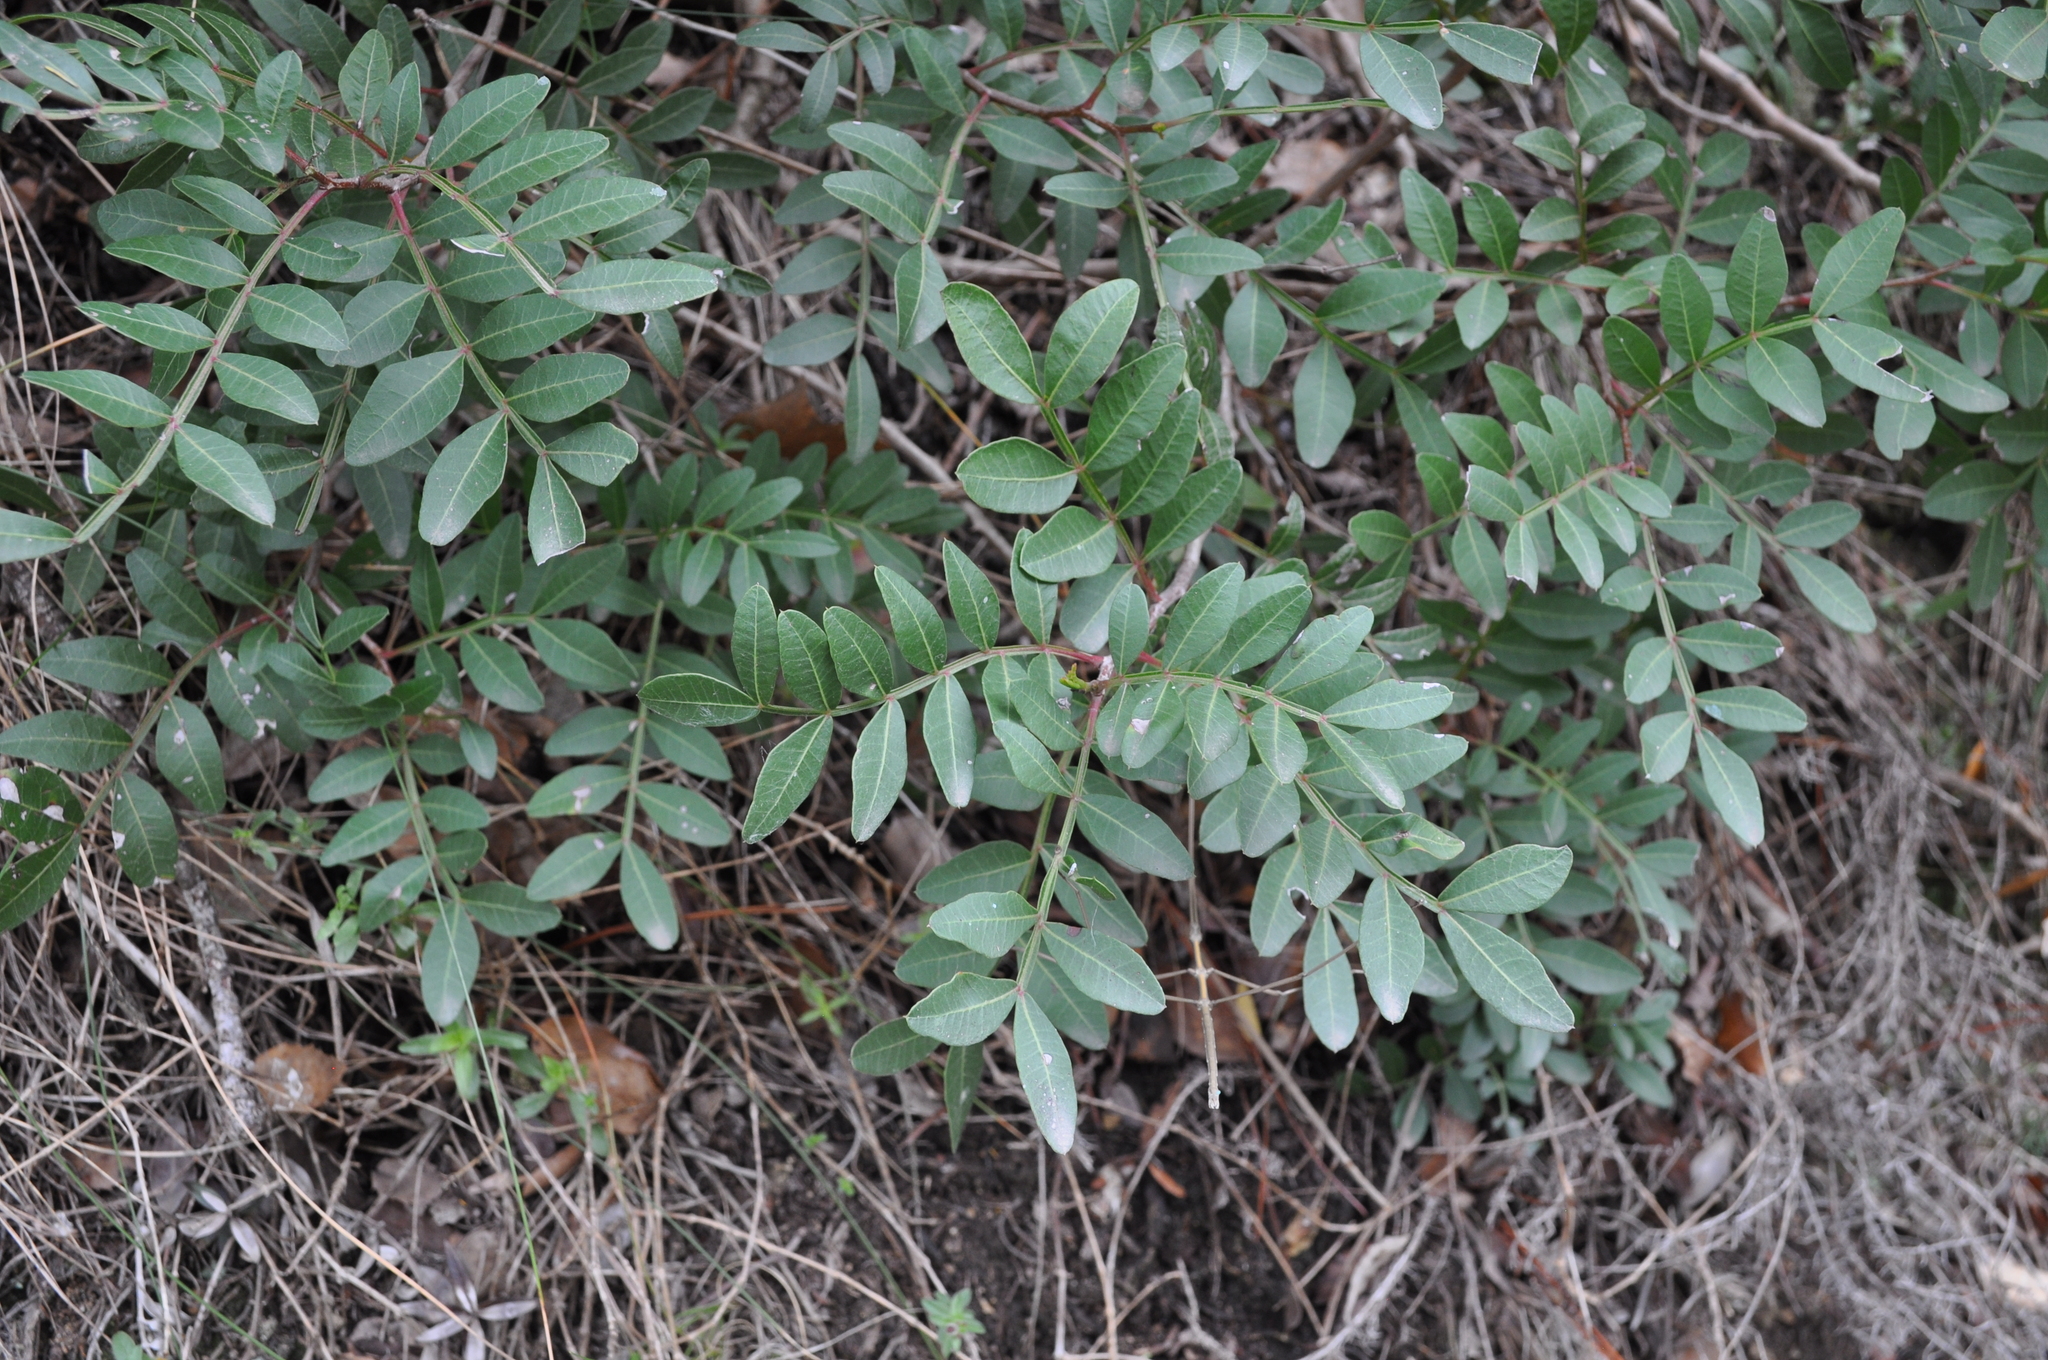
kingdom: Plantae
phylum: Tracheophyta
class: Magnoliopsida
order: Sapindales
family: Anacardiaceae
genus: Pistacia
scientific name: Pistacia lentiscus
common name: Lentisk
